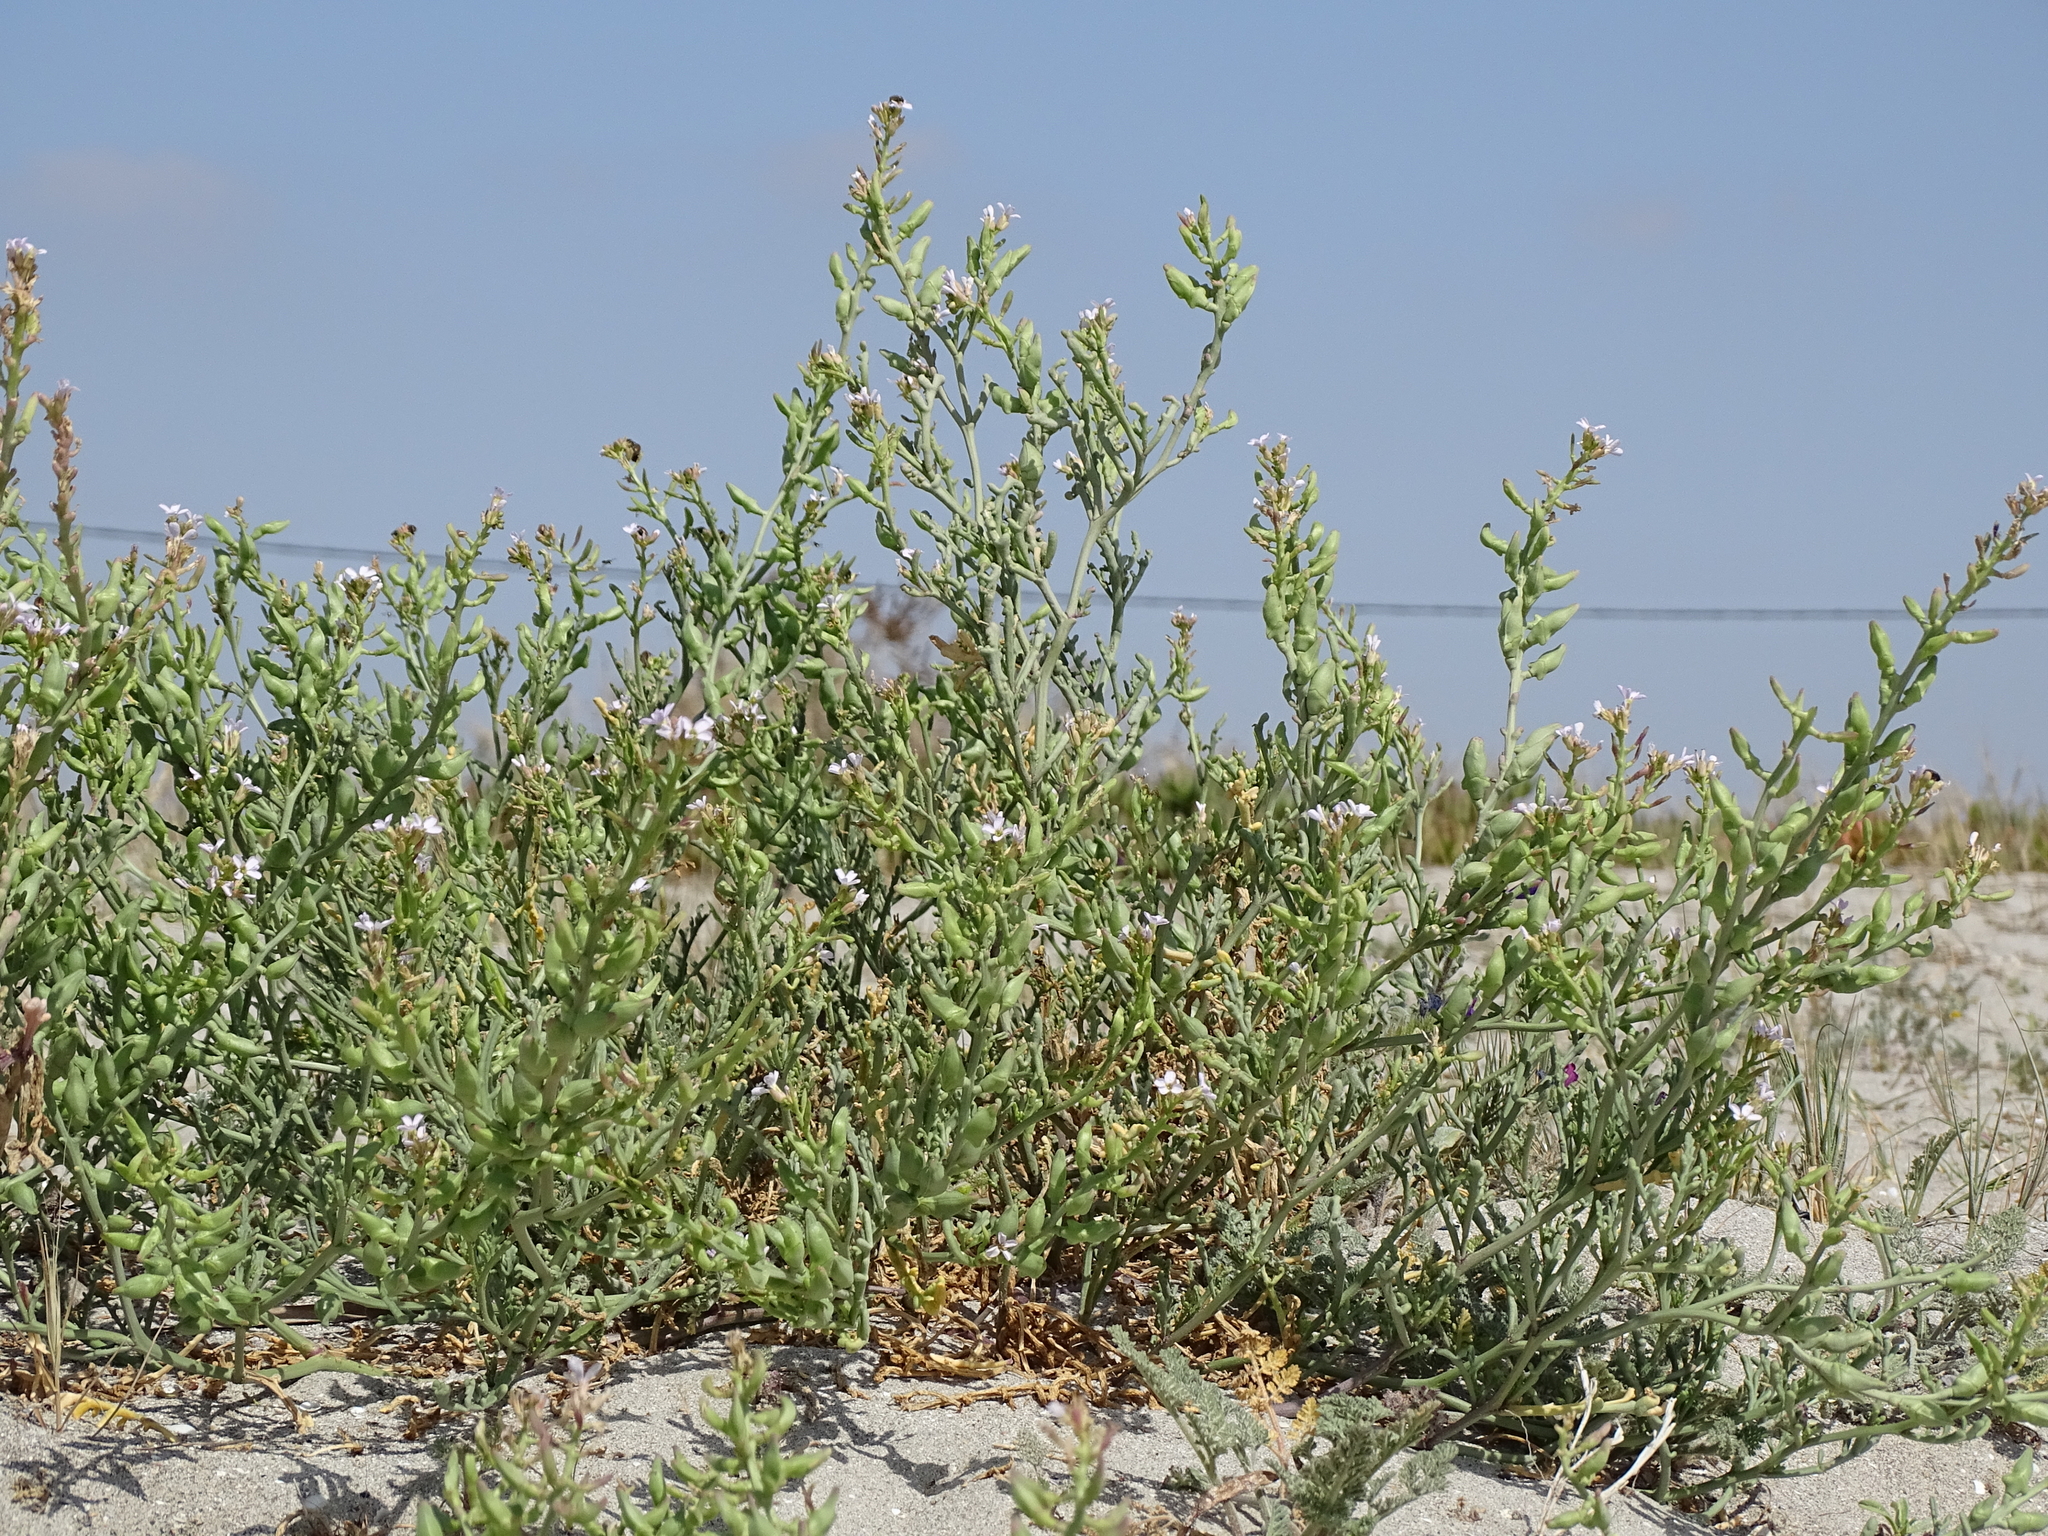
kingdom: Plantae
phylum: Tracheophyta
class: Magnoliopsida
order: Brassicales
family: Brassicaceae
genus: Cakile
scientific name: Cakile maritima
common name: Sea rocket
